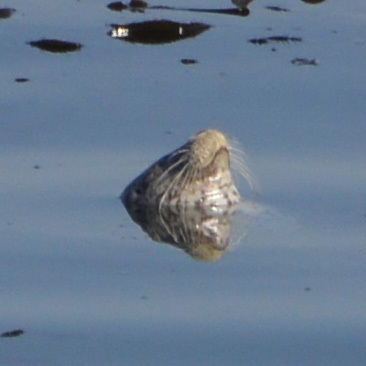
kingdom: Animalia
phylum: Chordata
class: Mammalia
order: Carnivora
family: Phocidae
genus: Phoca
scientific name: Phoca vitulina
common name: Harbor seal
